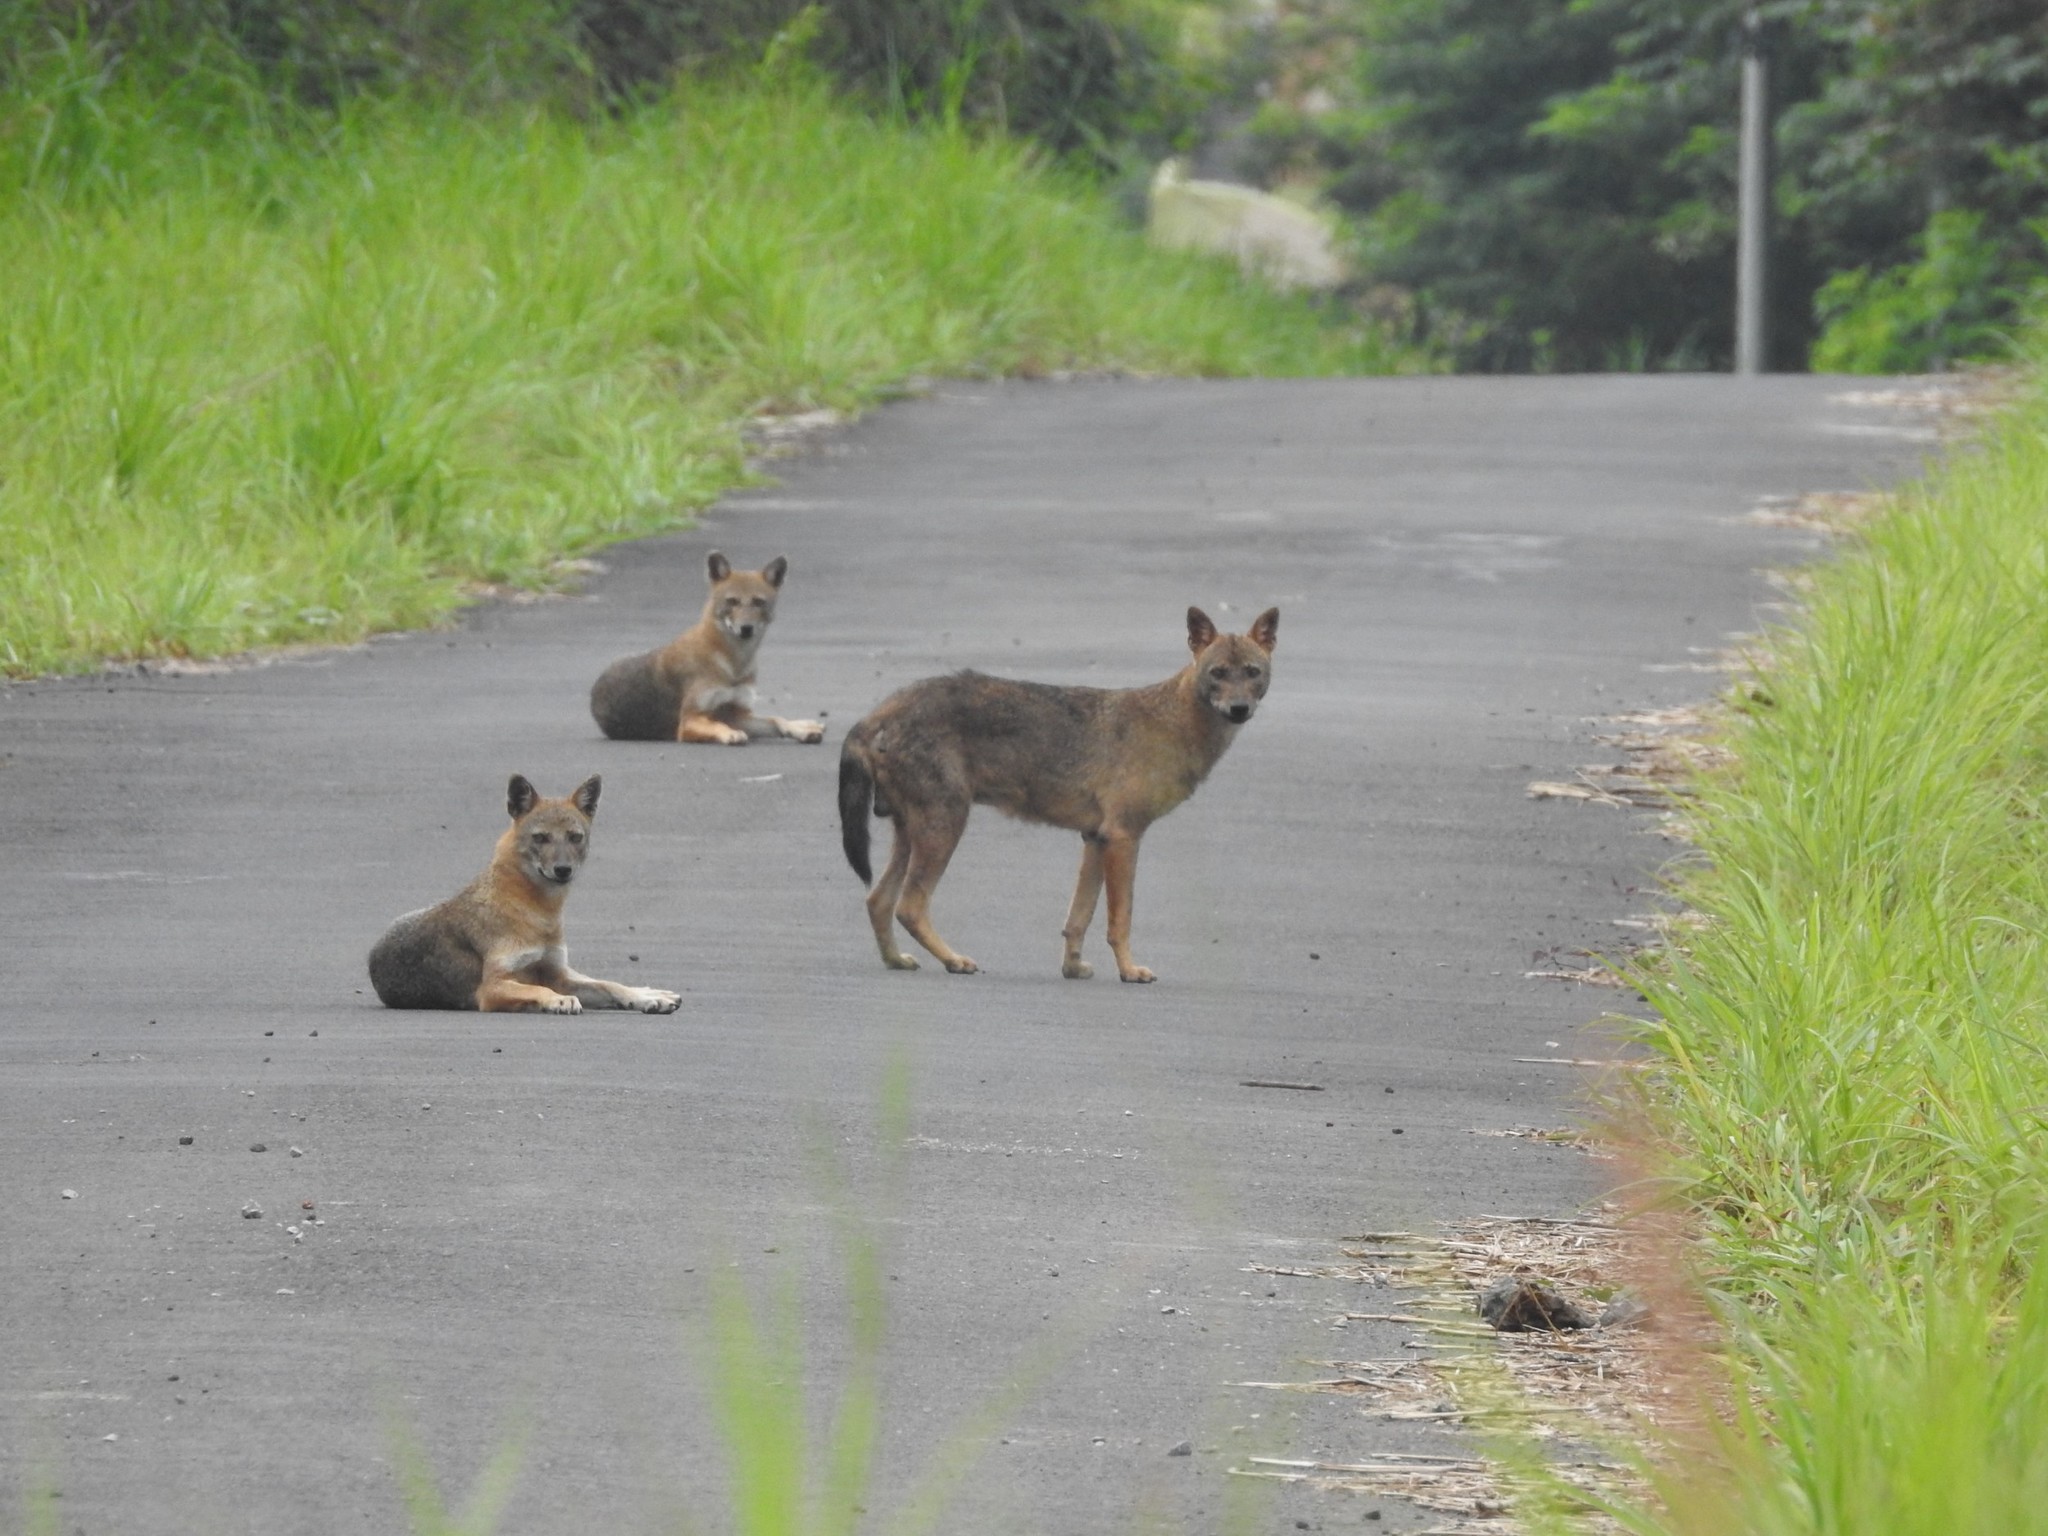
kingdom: Animalia
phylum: Chordata
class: Mammalia
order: Carnivora
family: Canidae
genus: Canis
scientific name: Canis aureus
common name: Golden jackal
